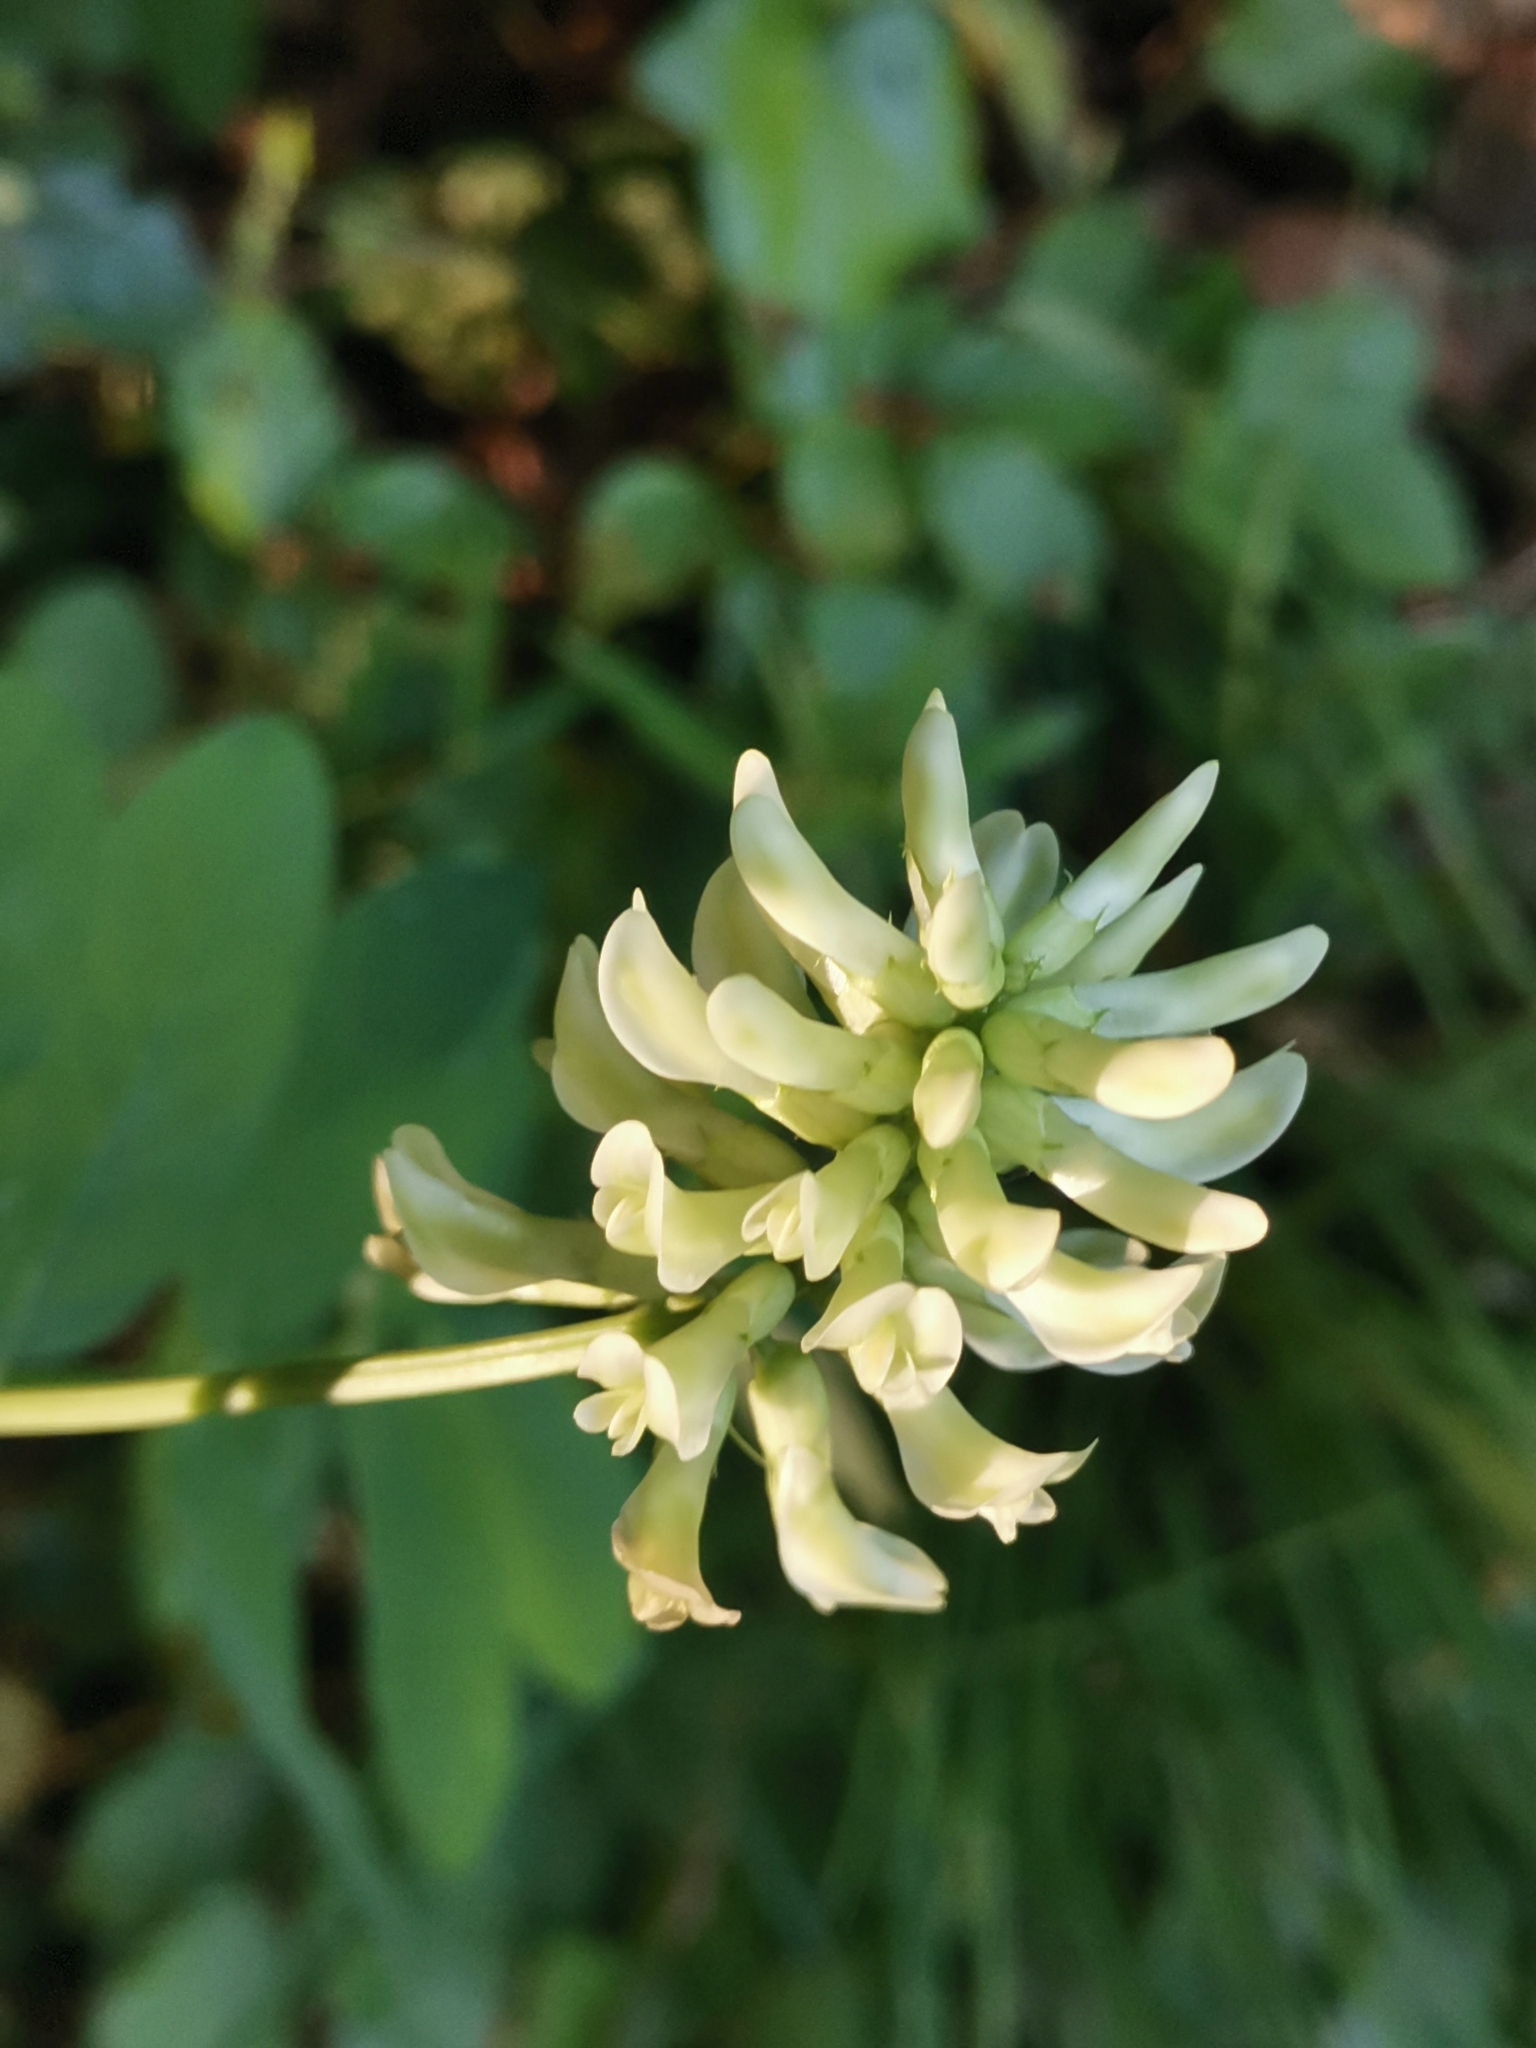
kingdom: Plantae
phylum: Tracheophyta
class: Magnoliopsida
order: Fabales
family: Fabaceae
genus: Astragalus
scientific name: Astragalus glycyphyllos
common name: Wild liquorice
